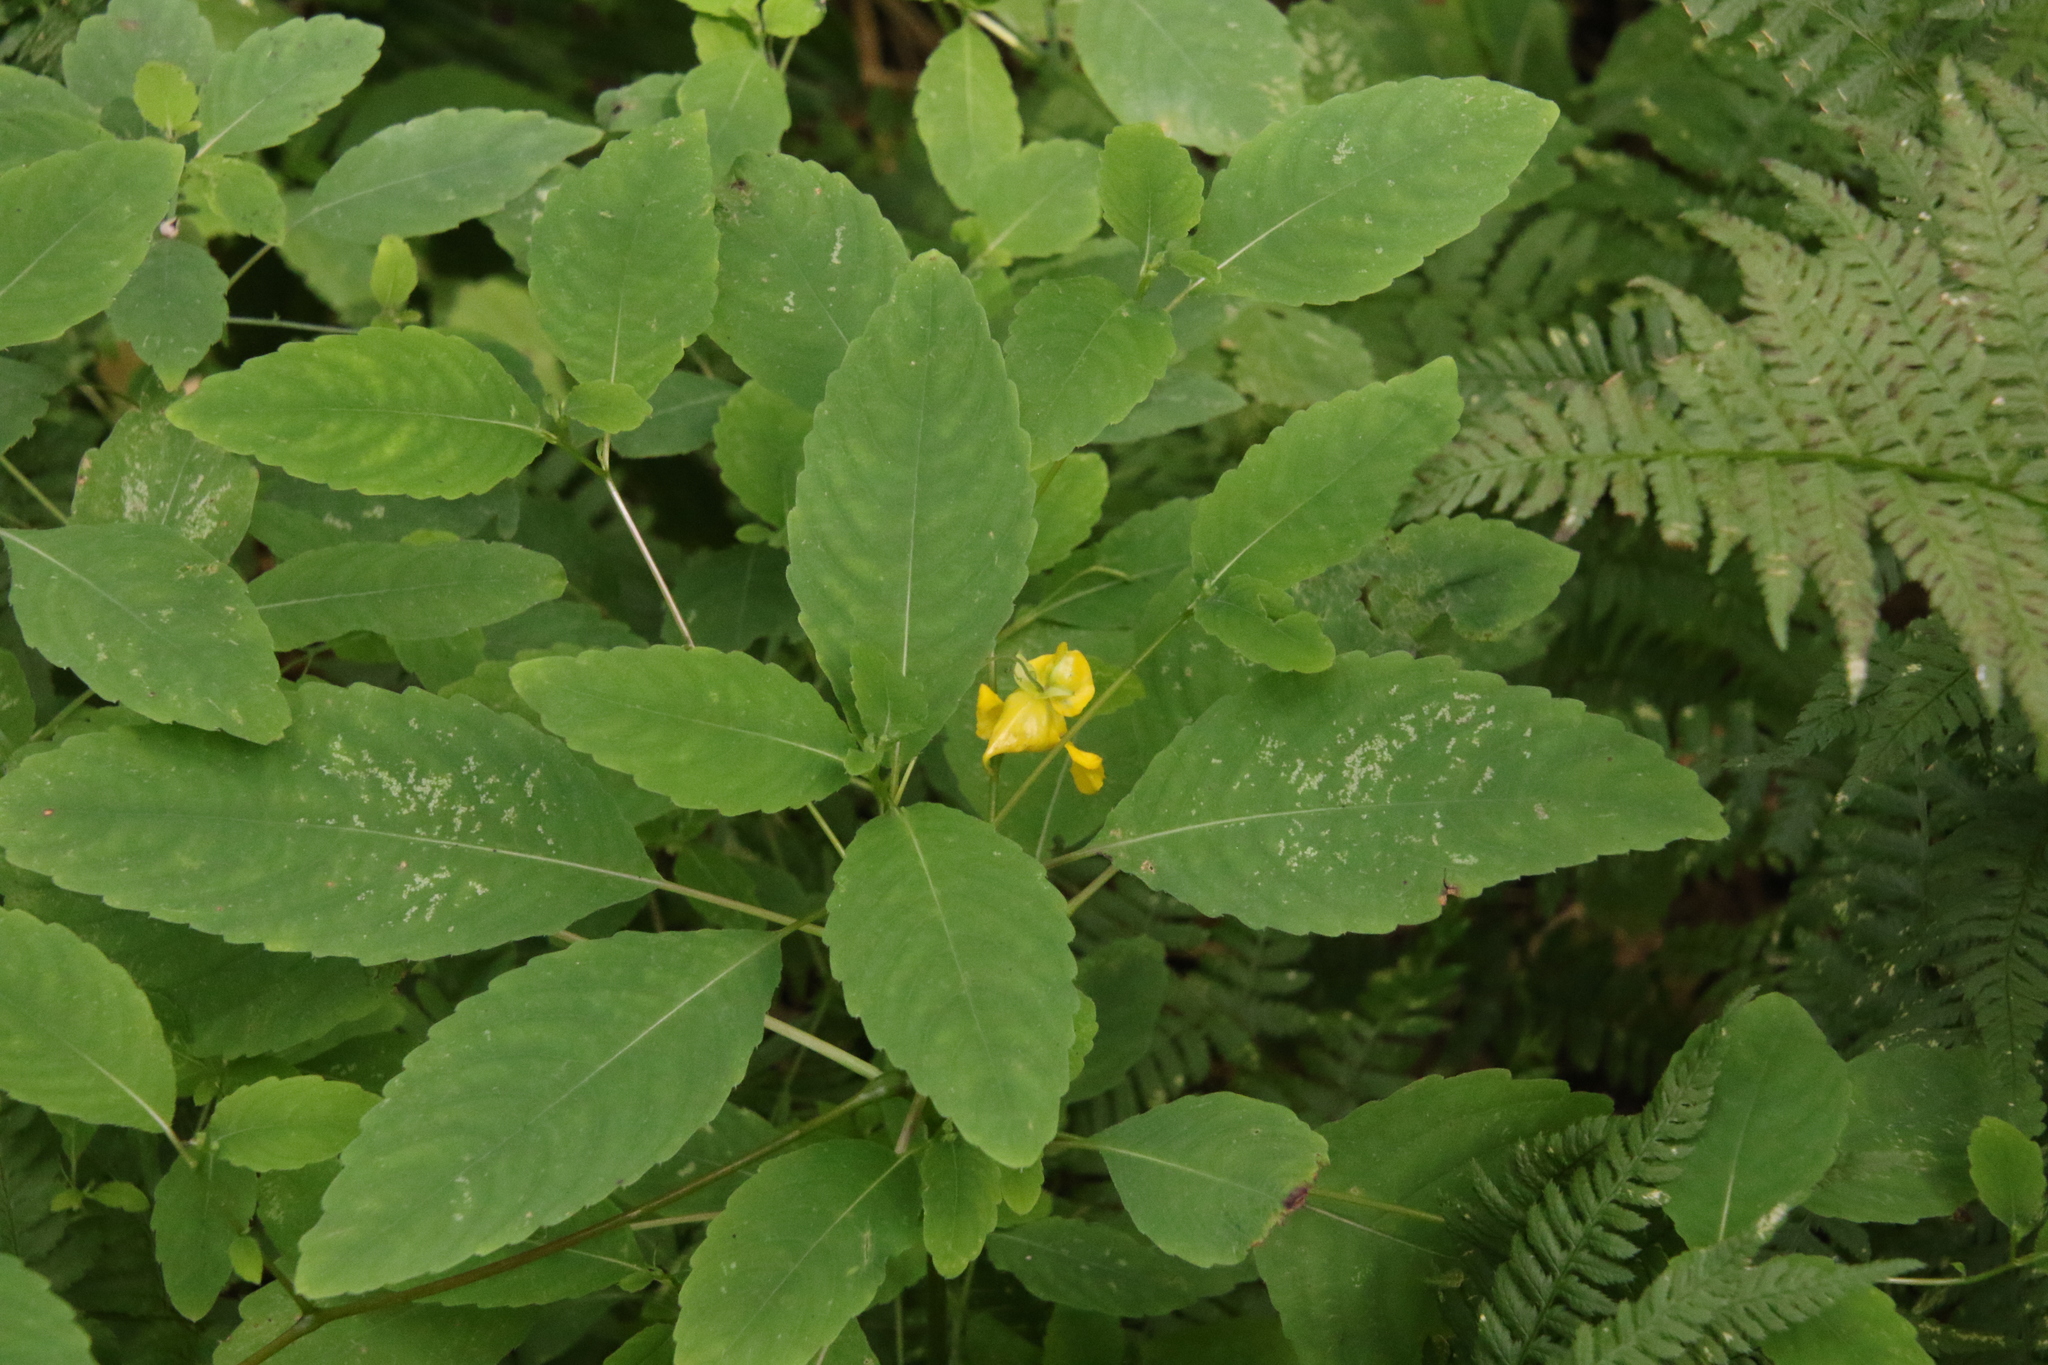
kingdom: Plantae
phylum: Tracheophyta
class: Magnoliopsida
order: Ericales
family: Balsaminaceae
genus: Impatiens
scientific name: Impatiens pallida
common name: Pale snapweed
